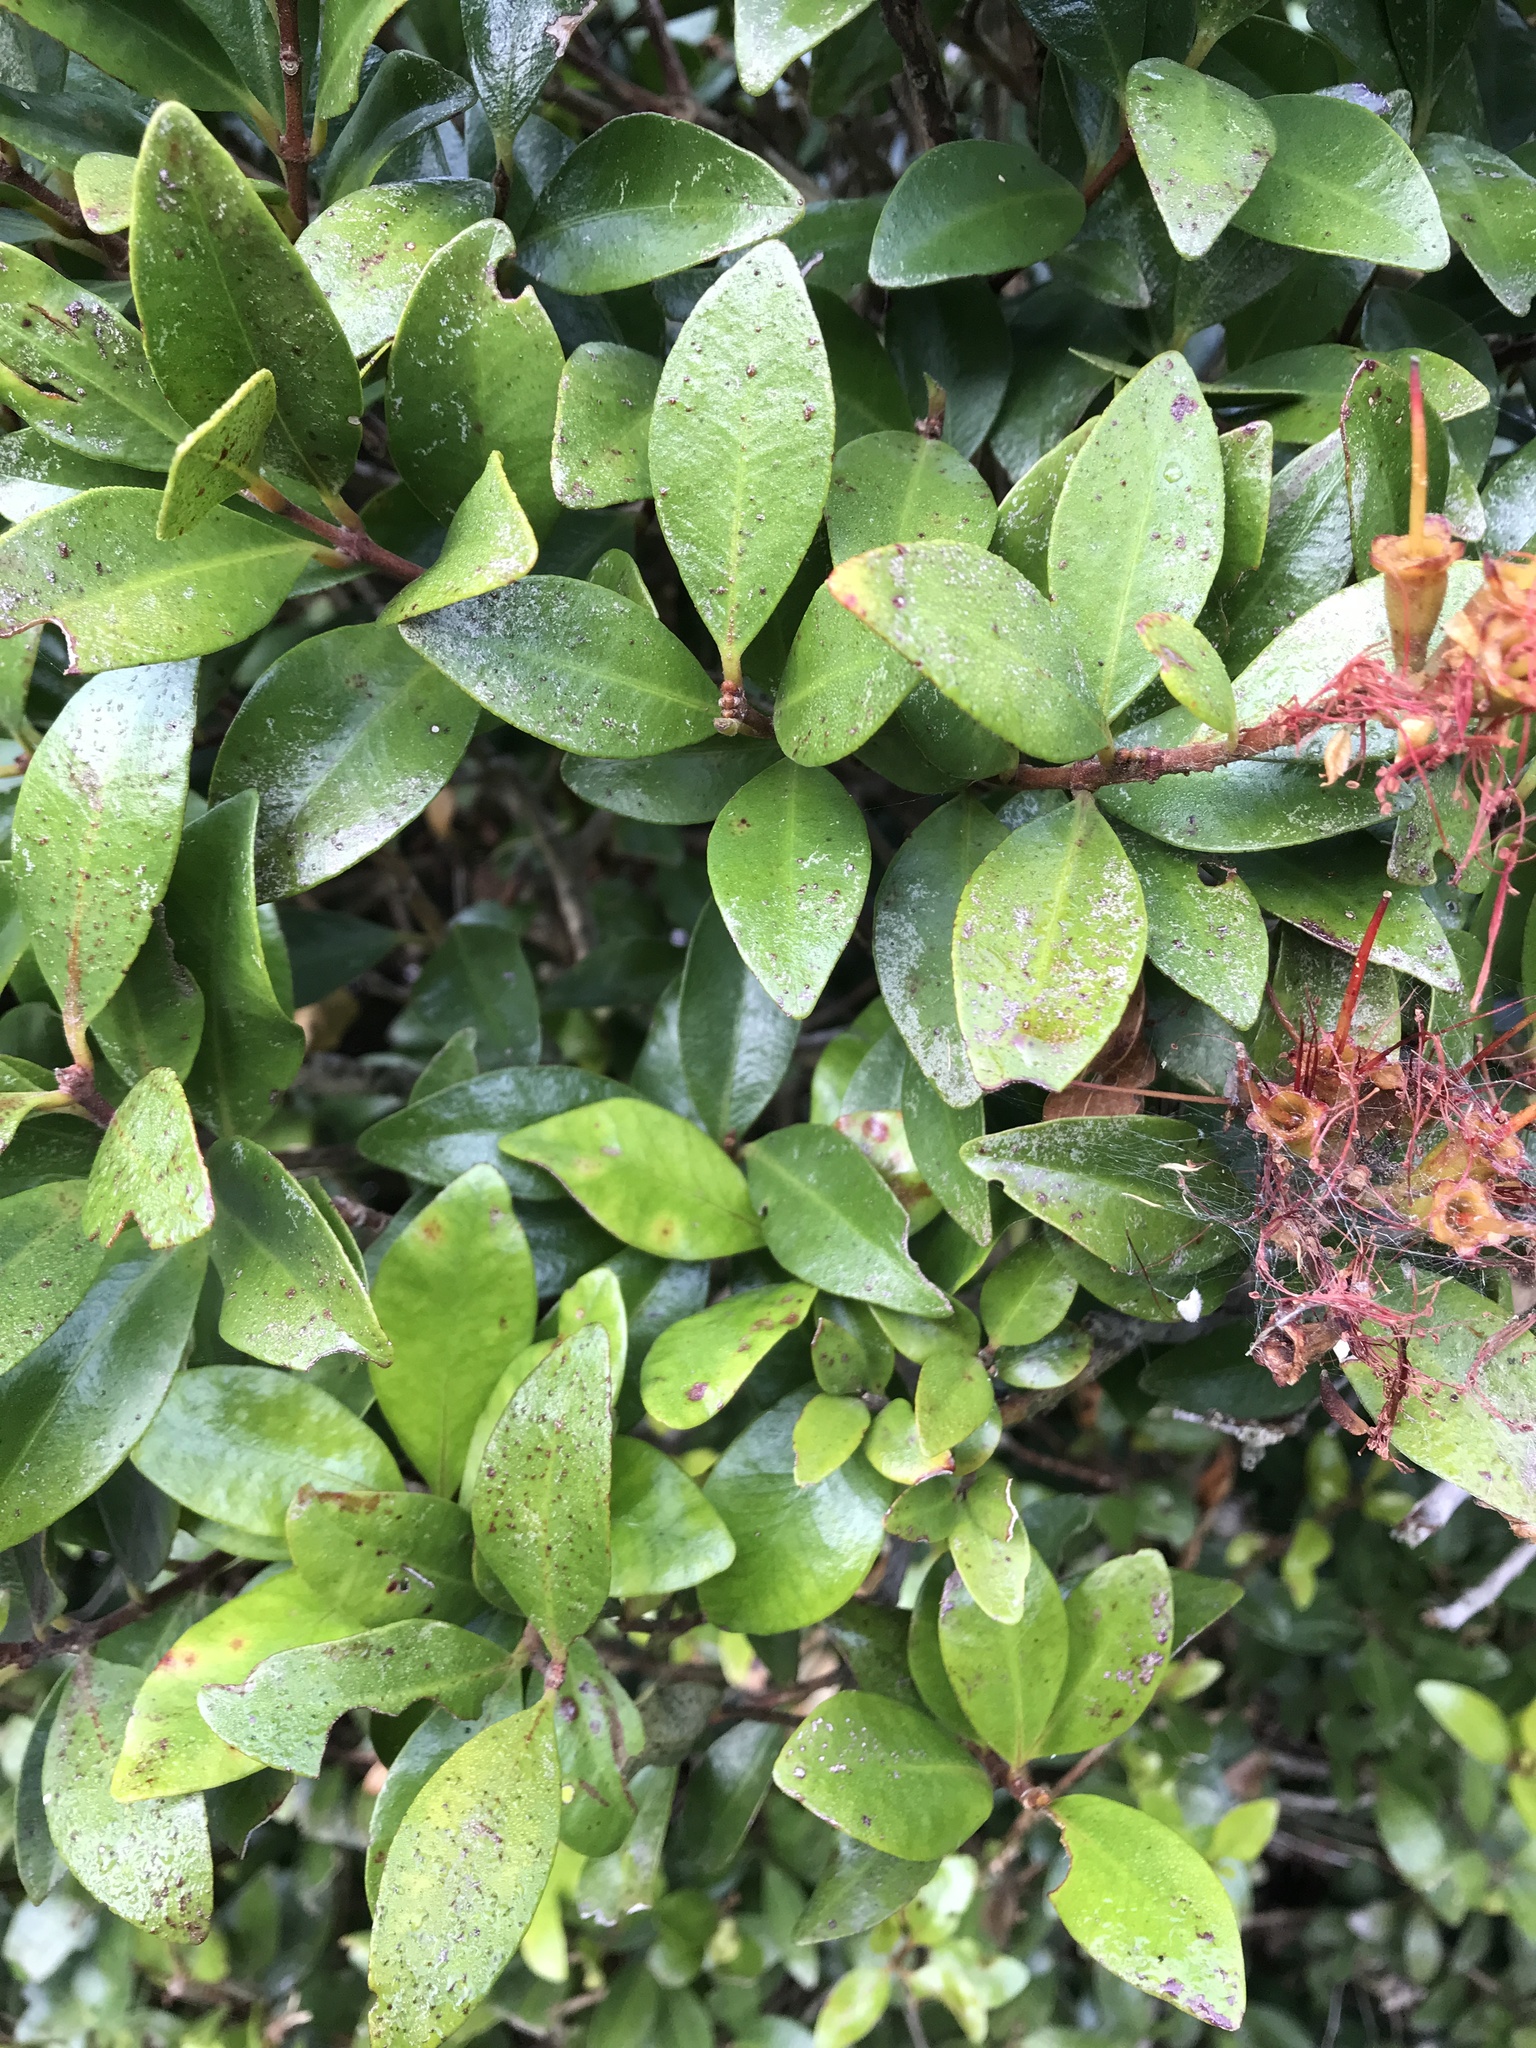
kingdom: Fungi
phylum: Basidiomycota
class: Pucciniomycetes
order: Pucciniales
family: Sphaerophragmiaceae
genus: Austropuccinia
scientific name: Austropuccinia psidii
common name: Myrtle rust
